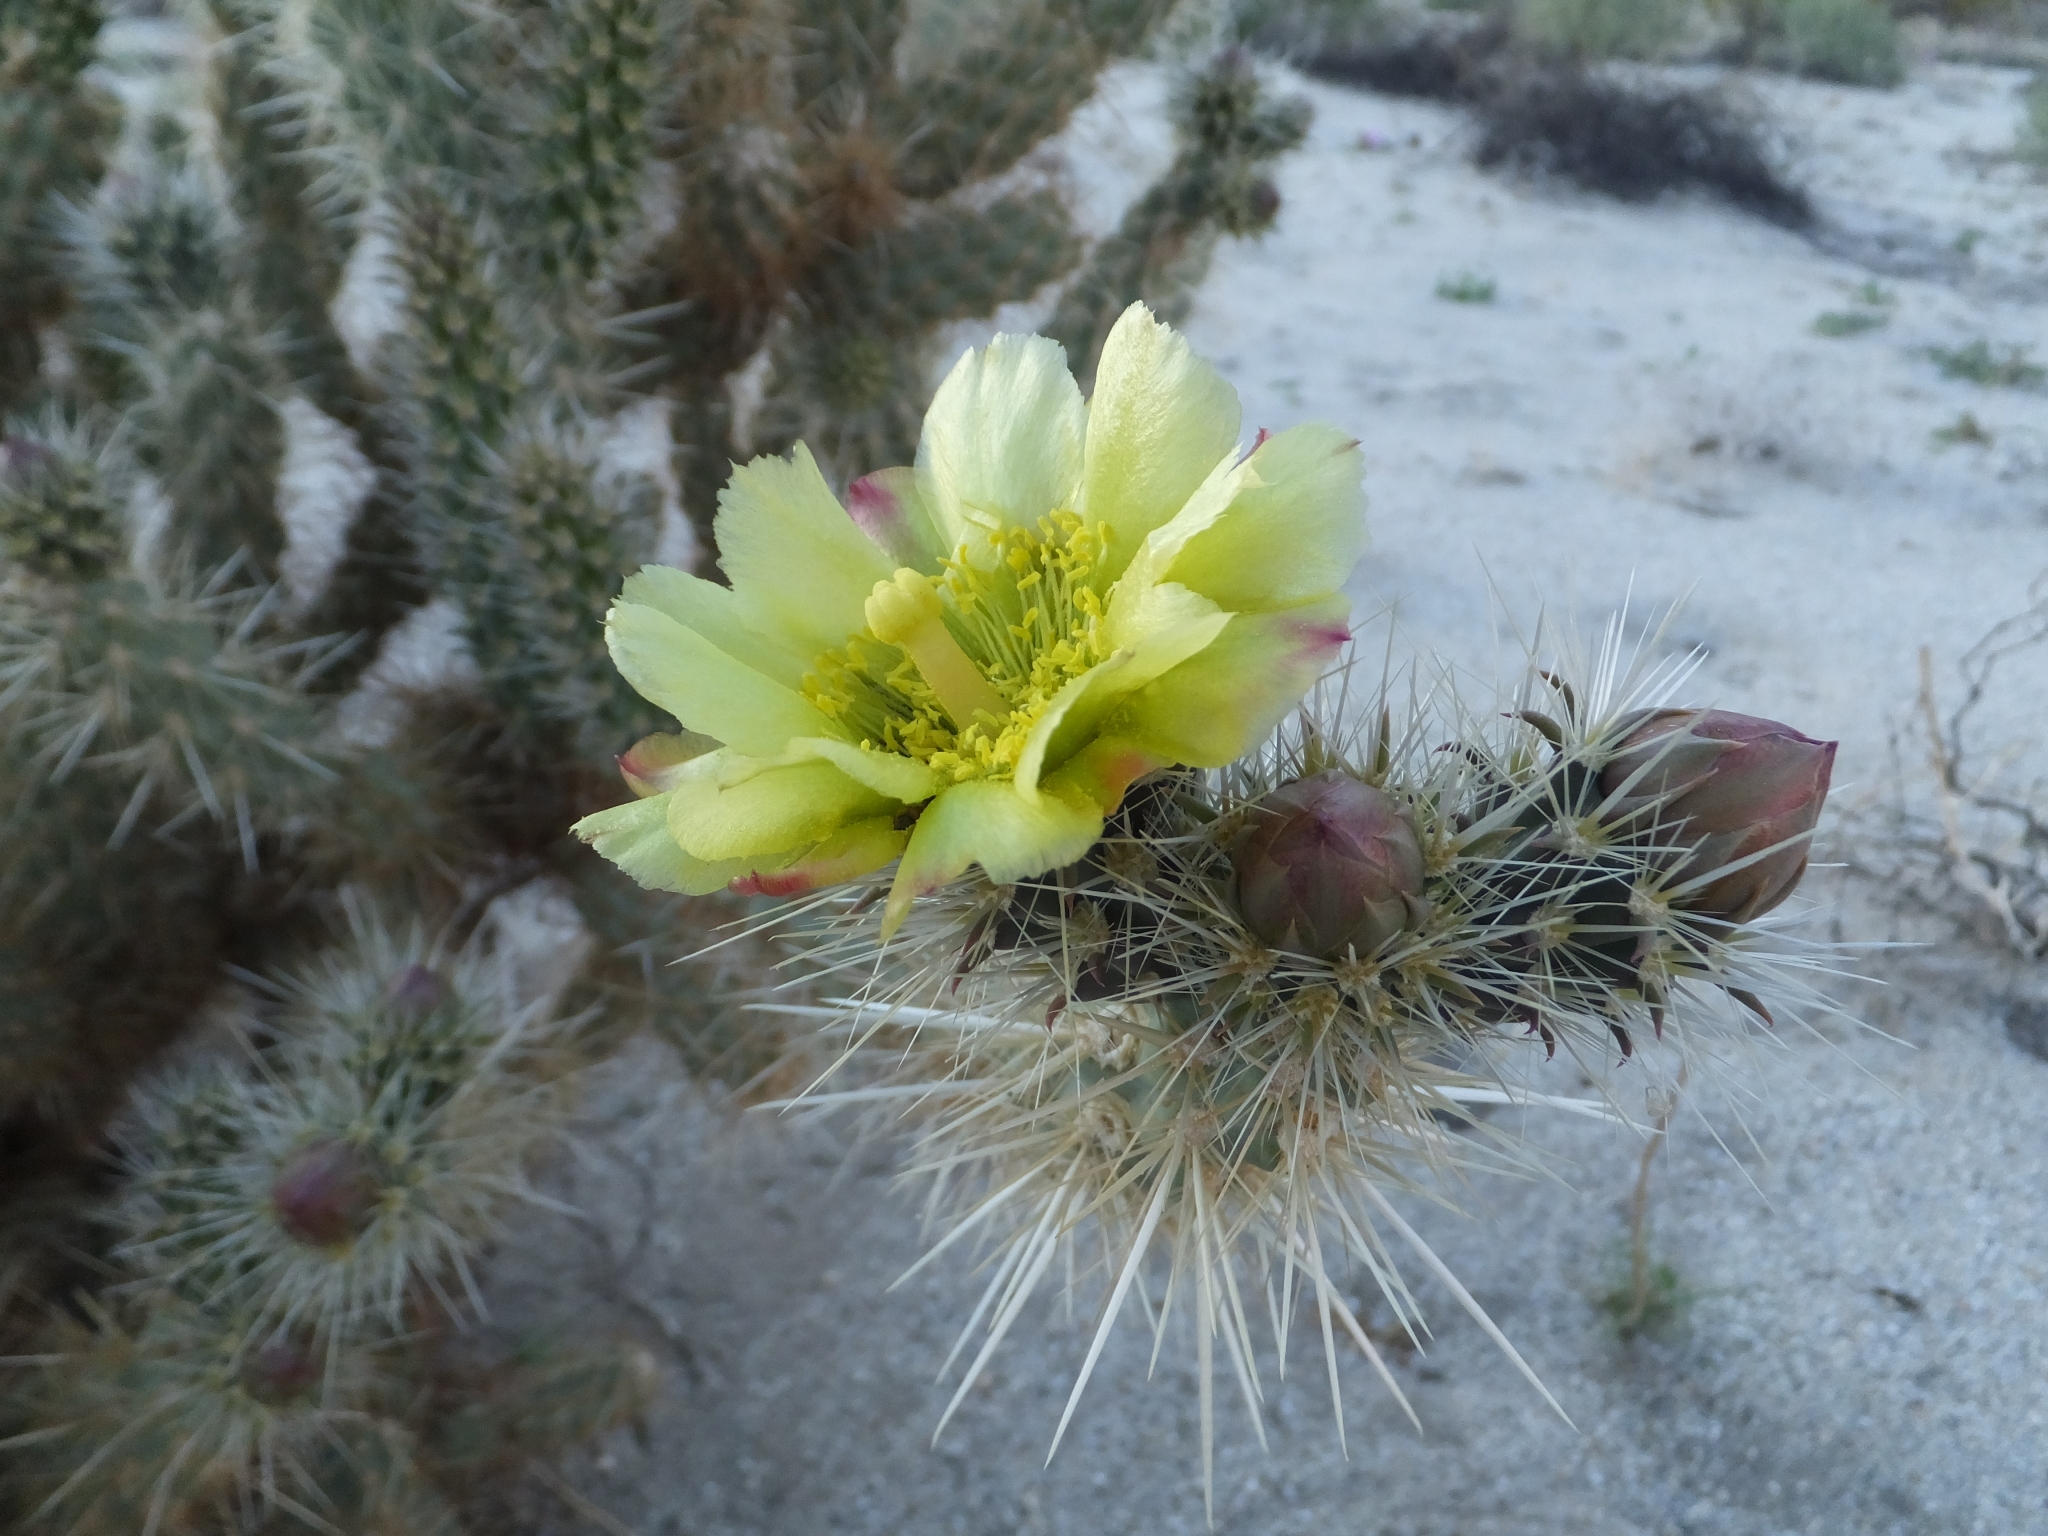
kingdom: Plantae
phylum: Tracheophyta
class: Magnoliopsida
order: Caryophyllales
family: Cactaceae
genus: Cylindropuntia
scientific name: Cylindropuntia ganderi
